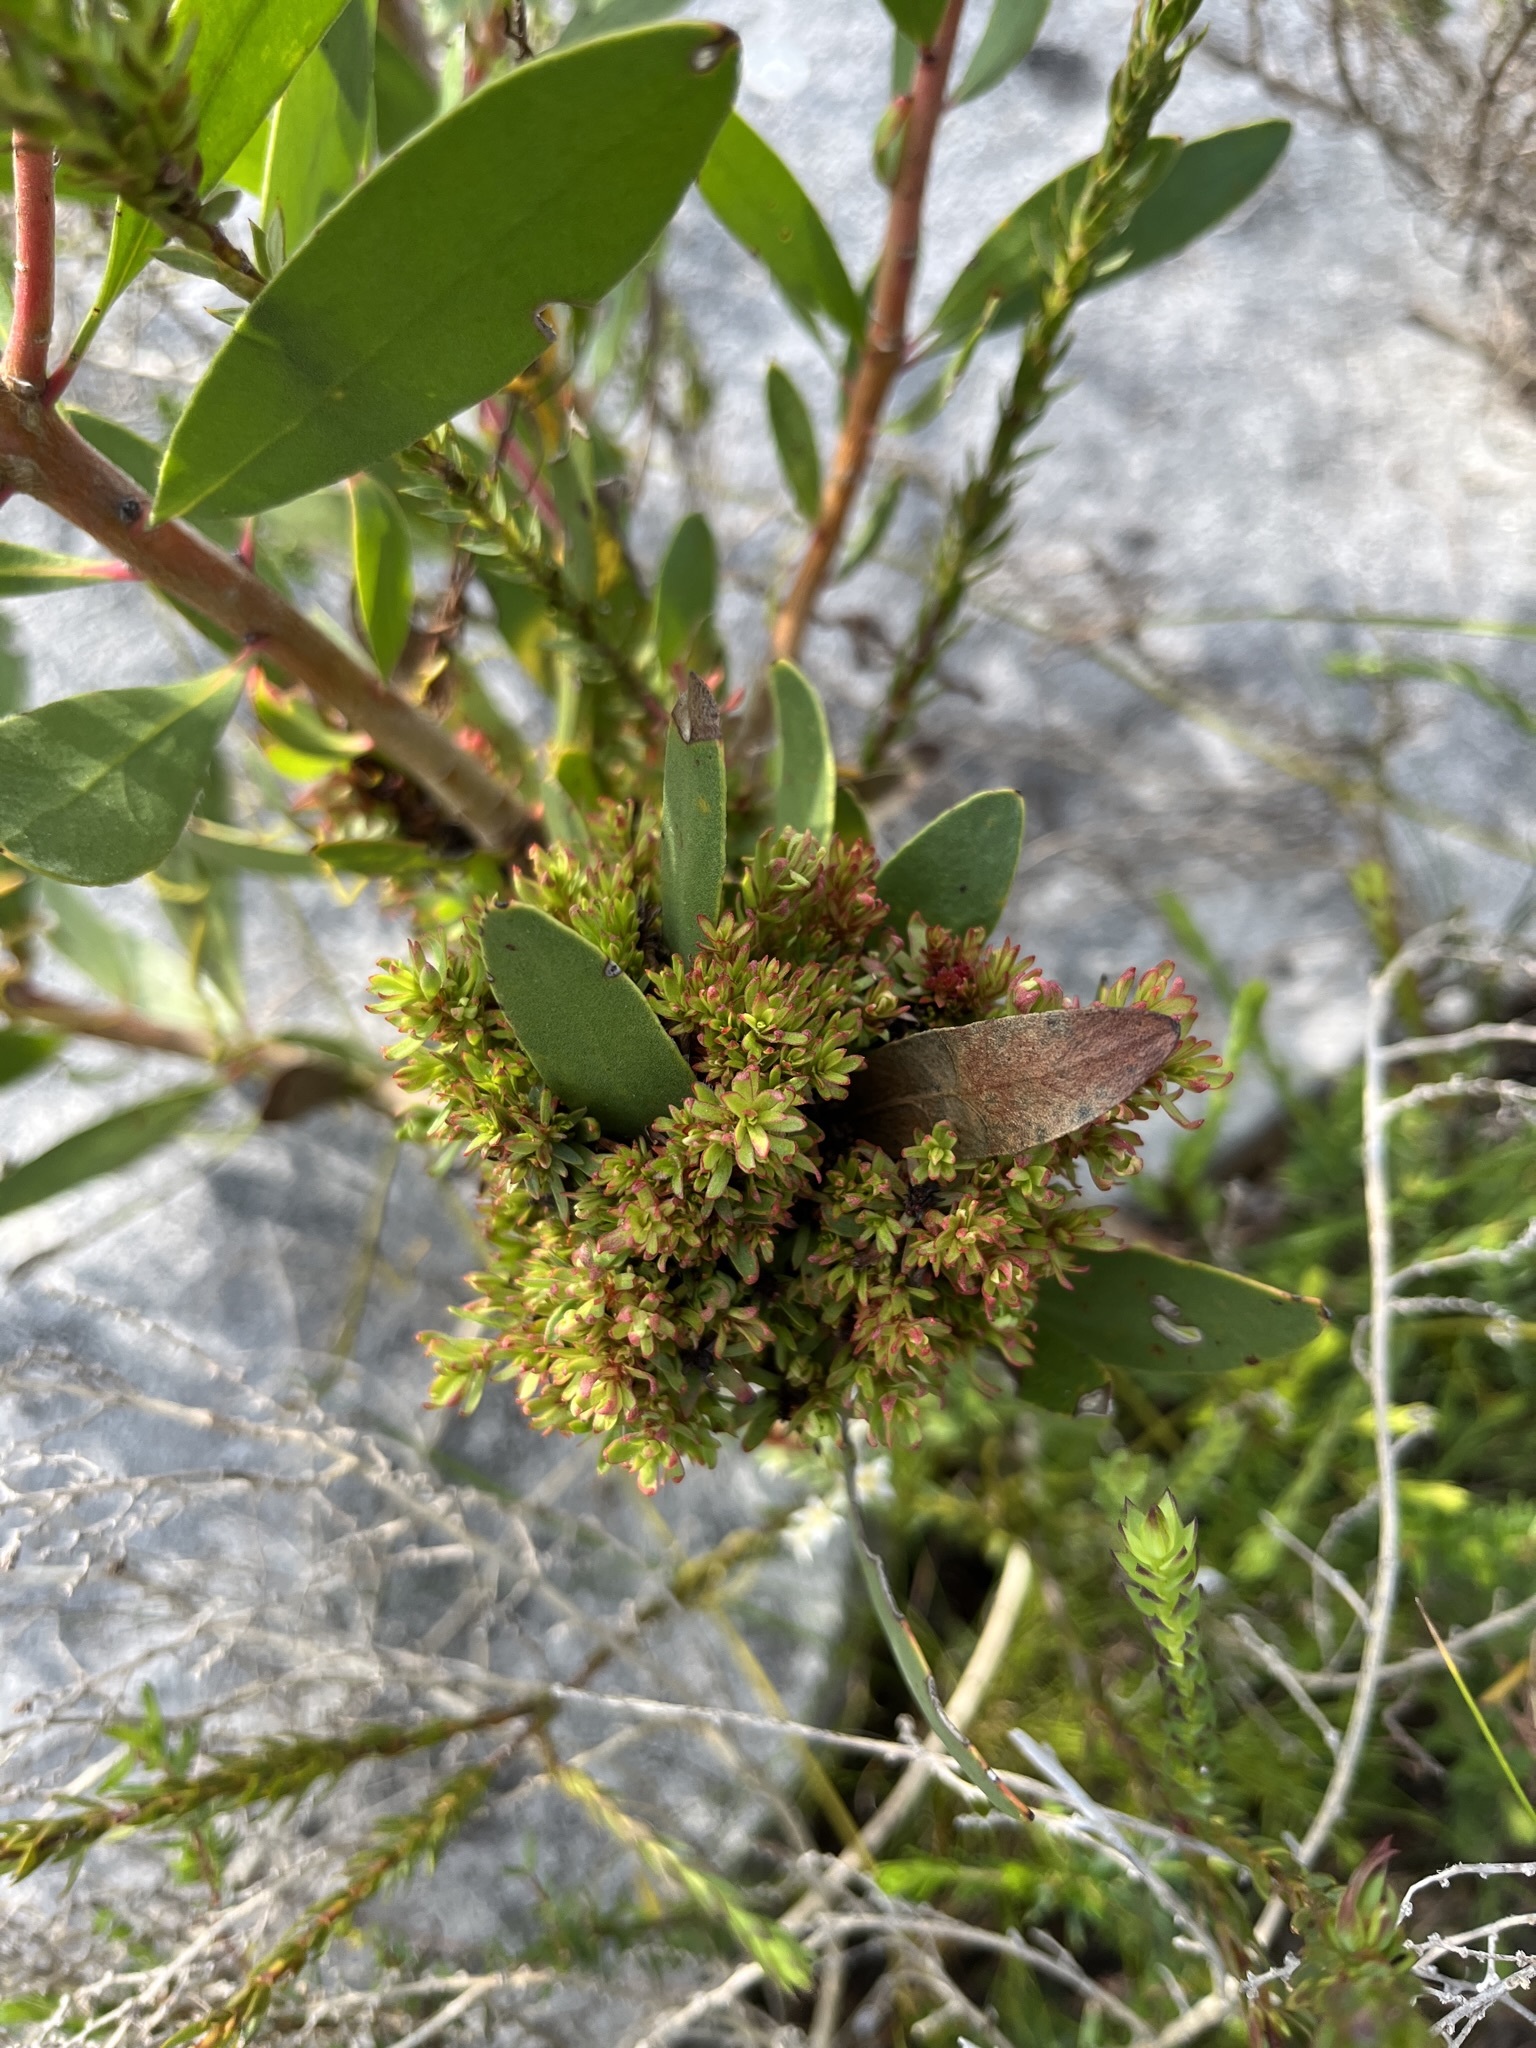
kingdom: Bacteria
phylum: Firmicutes
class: Bacilli
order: Acholeplasmatales
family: Acholeplasmataceae
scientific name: Acholeplasmataceae
